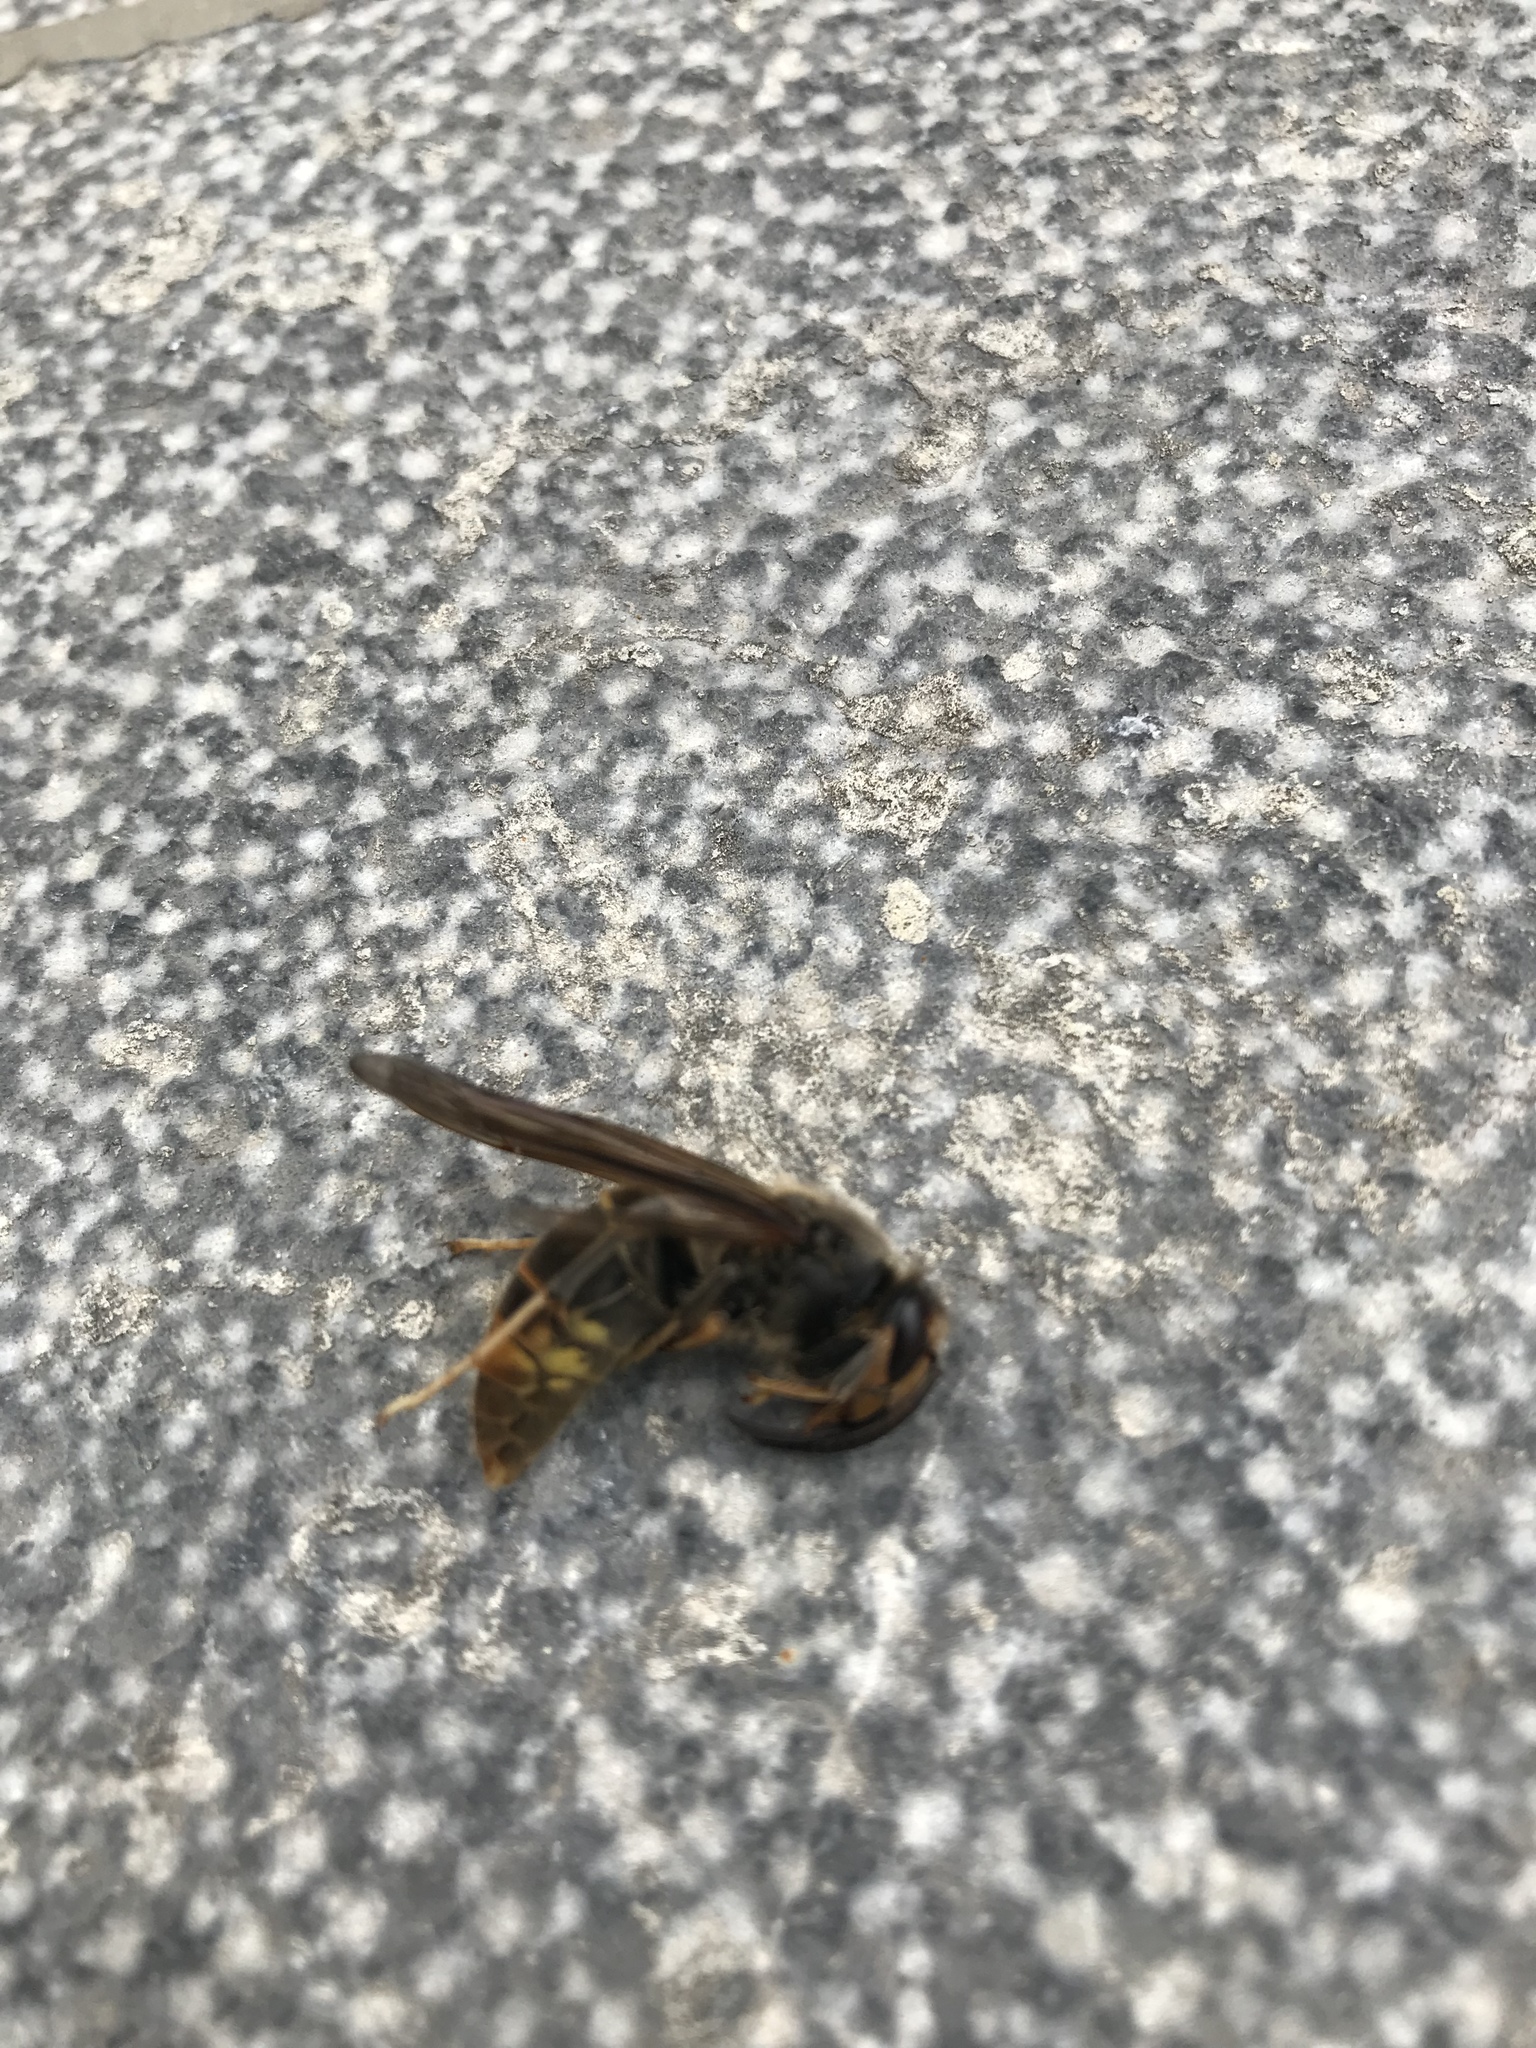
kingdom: Animalia
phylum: Arthropoda
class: Insecta
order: Hymenoptera
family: Vespidae
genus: Vespa
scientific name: Vespa velutina
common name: Asian hornet
